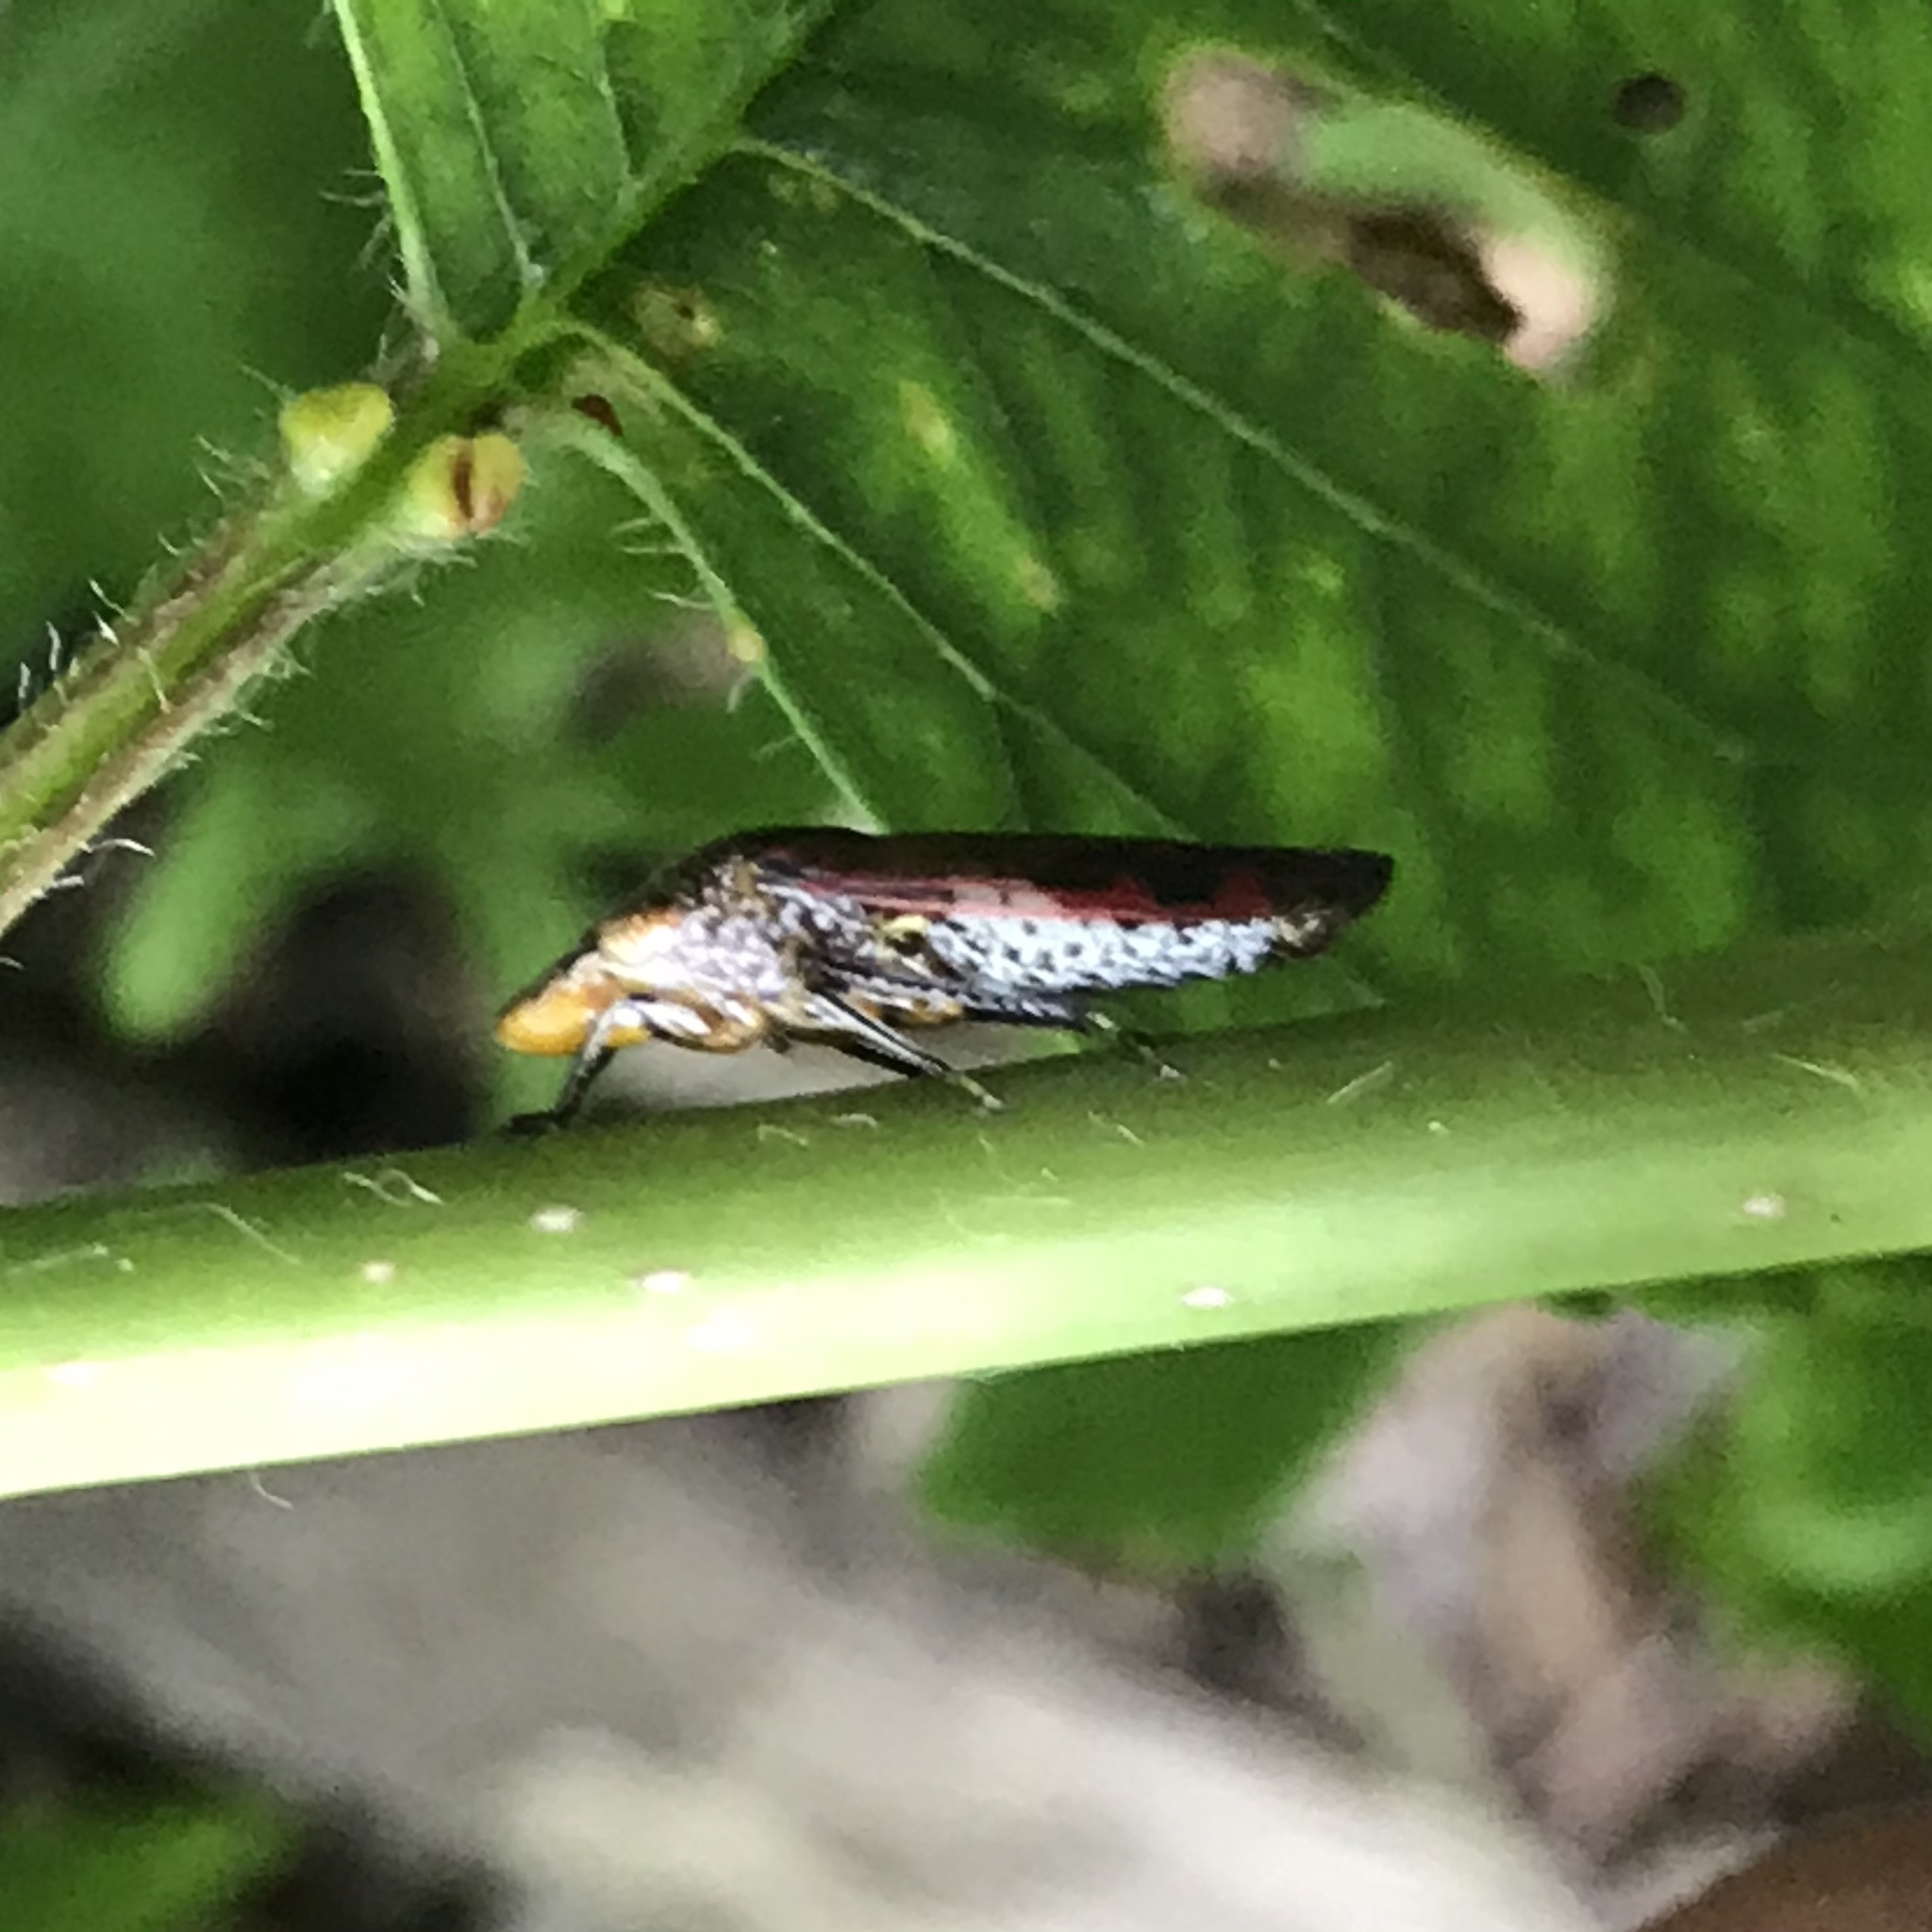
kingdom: Animalia
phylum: Arthropoda
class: Insecta
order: Hemiptera
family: Cicadellidae
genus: Homalodisca
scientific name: Homalodisca vitripennis
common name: Glassy-winged sharpshooter
